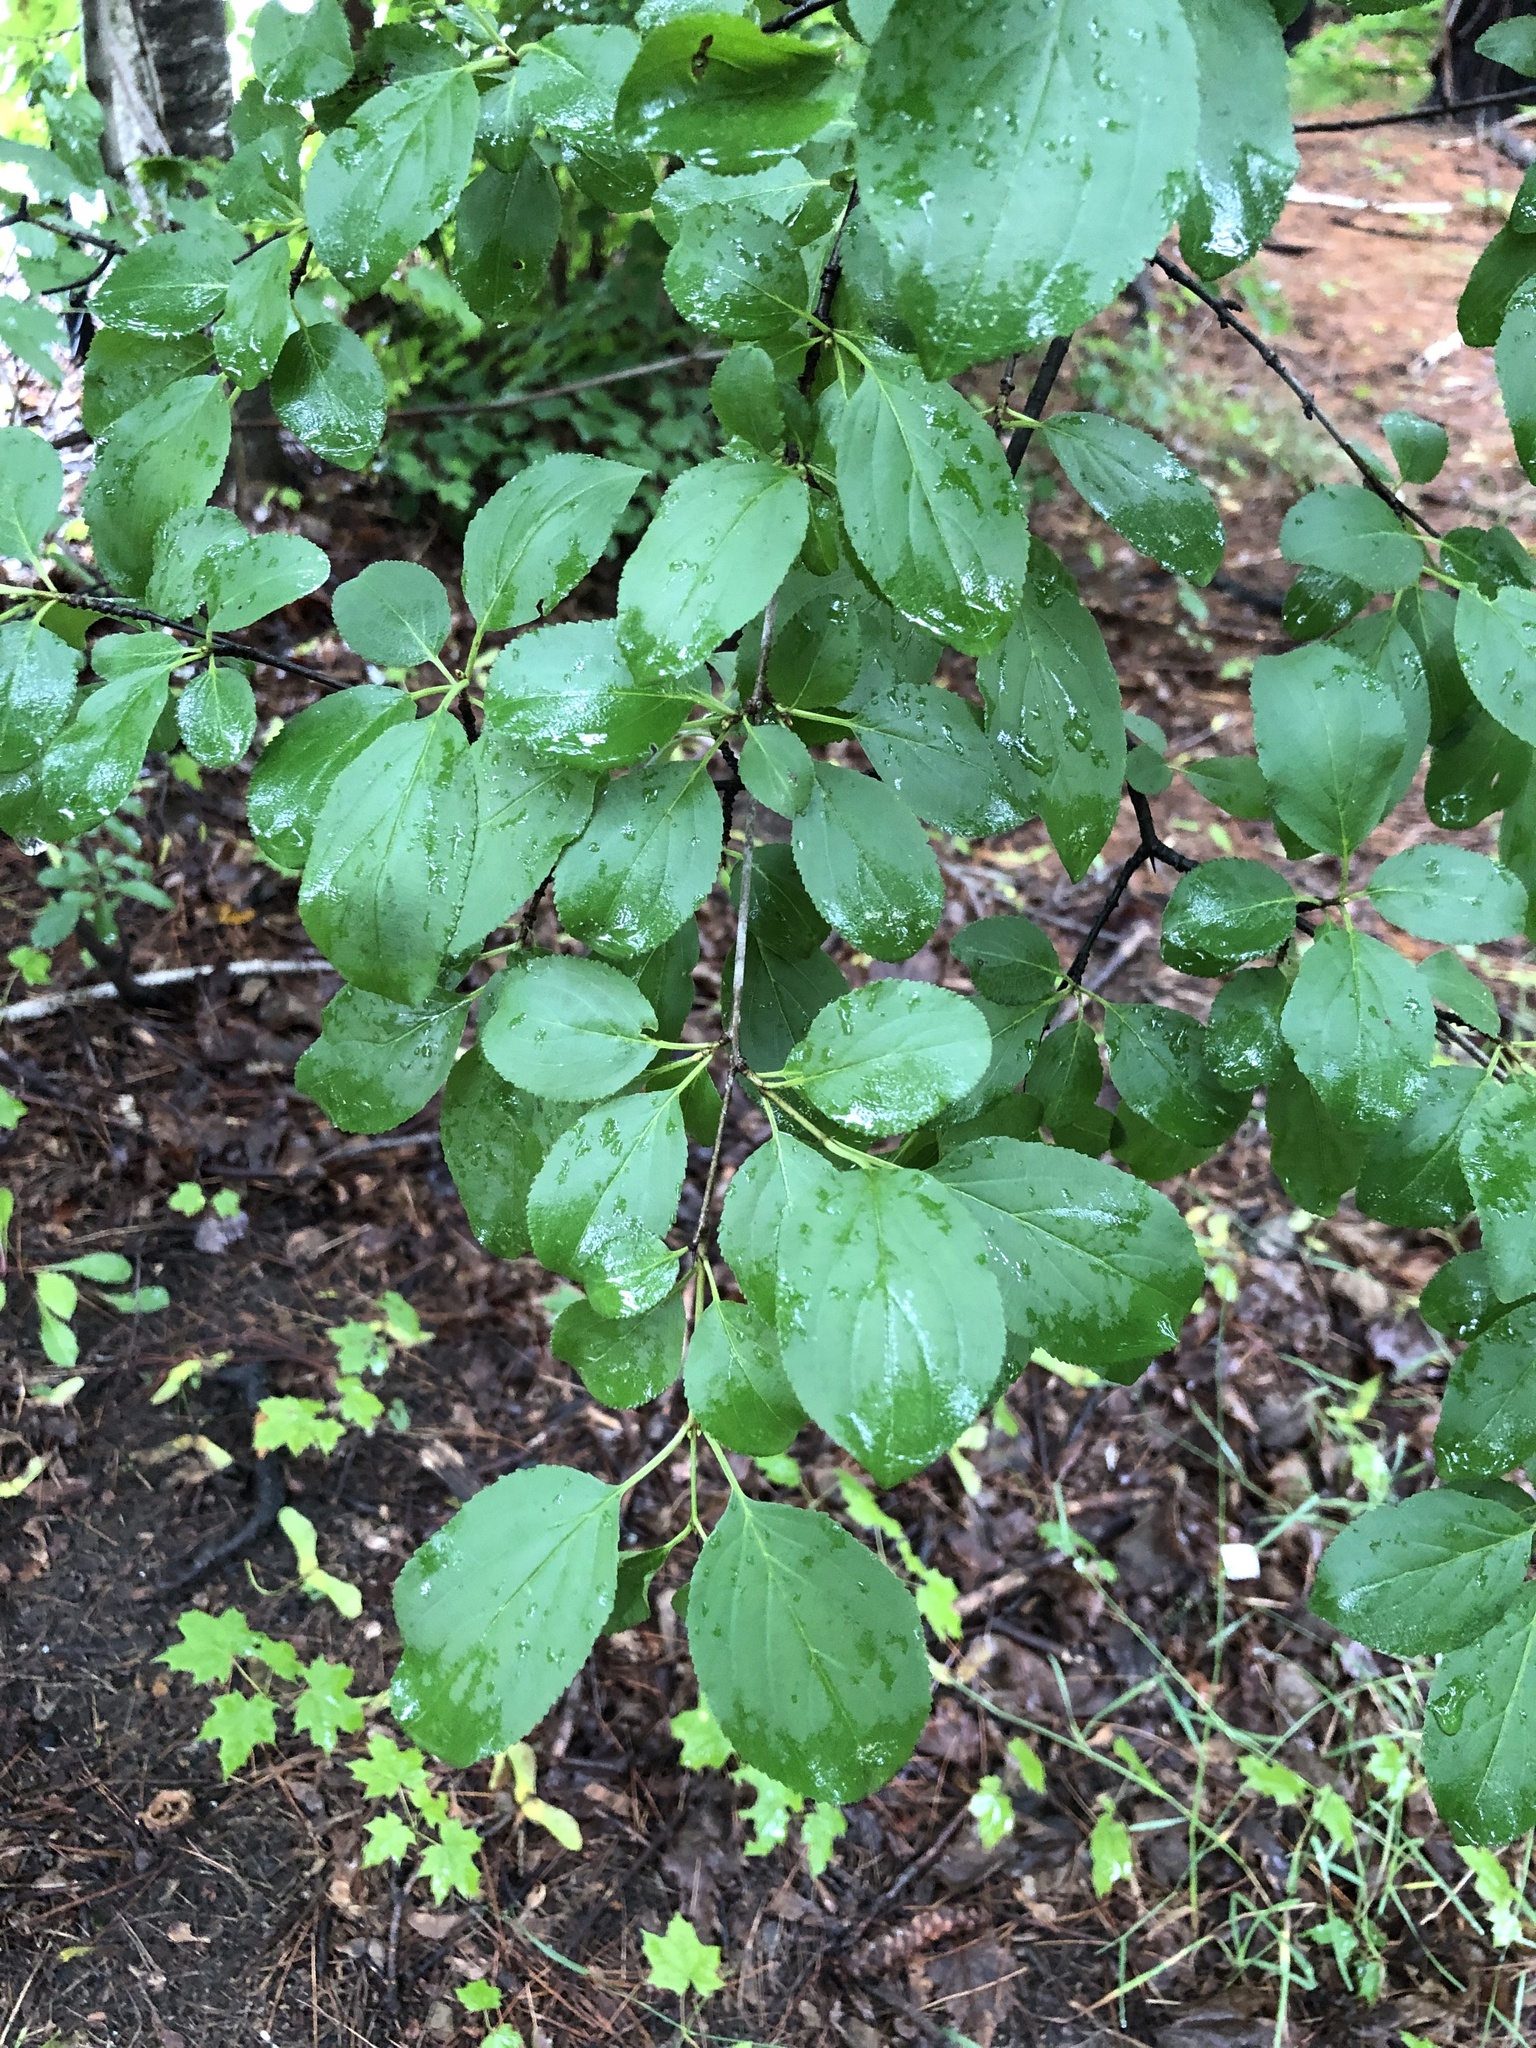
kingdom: Plantae
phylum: Tracheophyta
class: Magnoliopsida
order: Rosales
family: Rhamnaceae
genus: Rhamnus
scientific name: Rhamnus cathartica
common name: Common buckthorn
